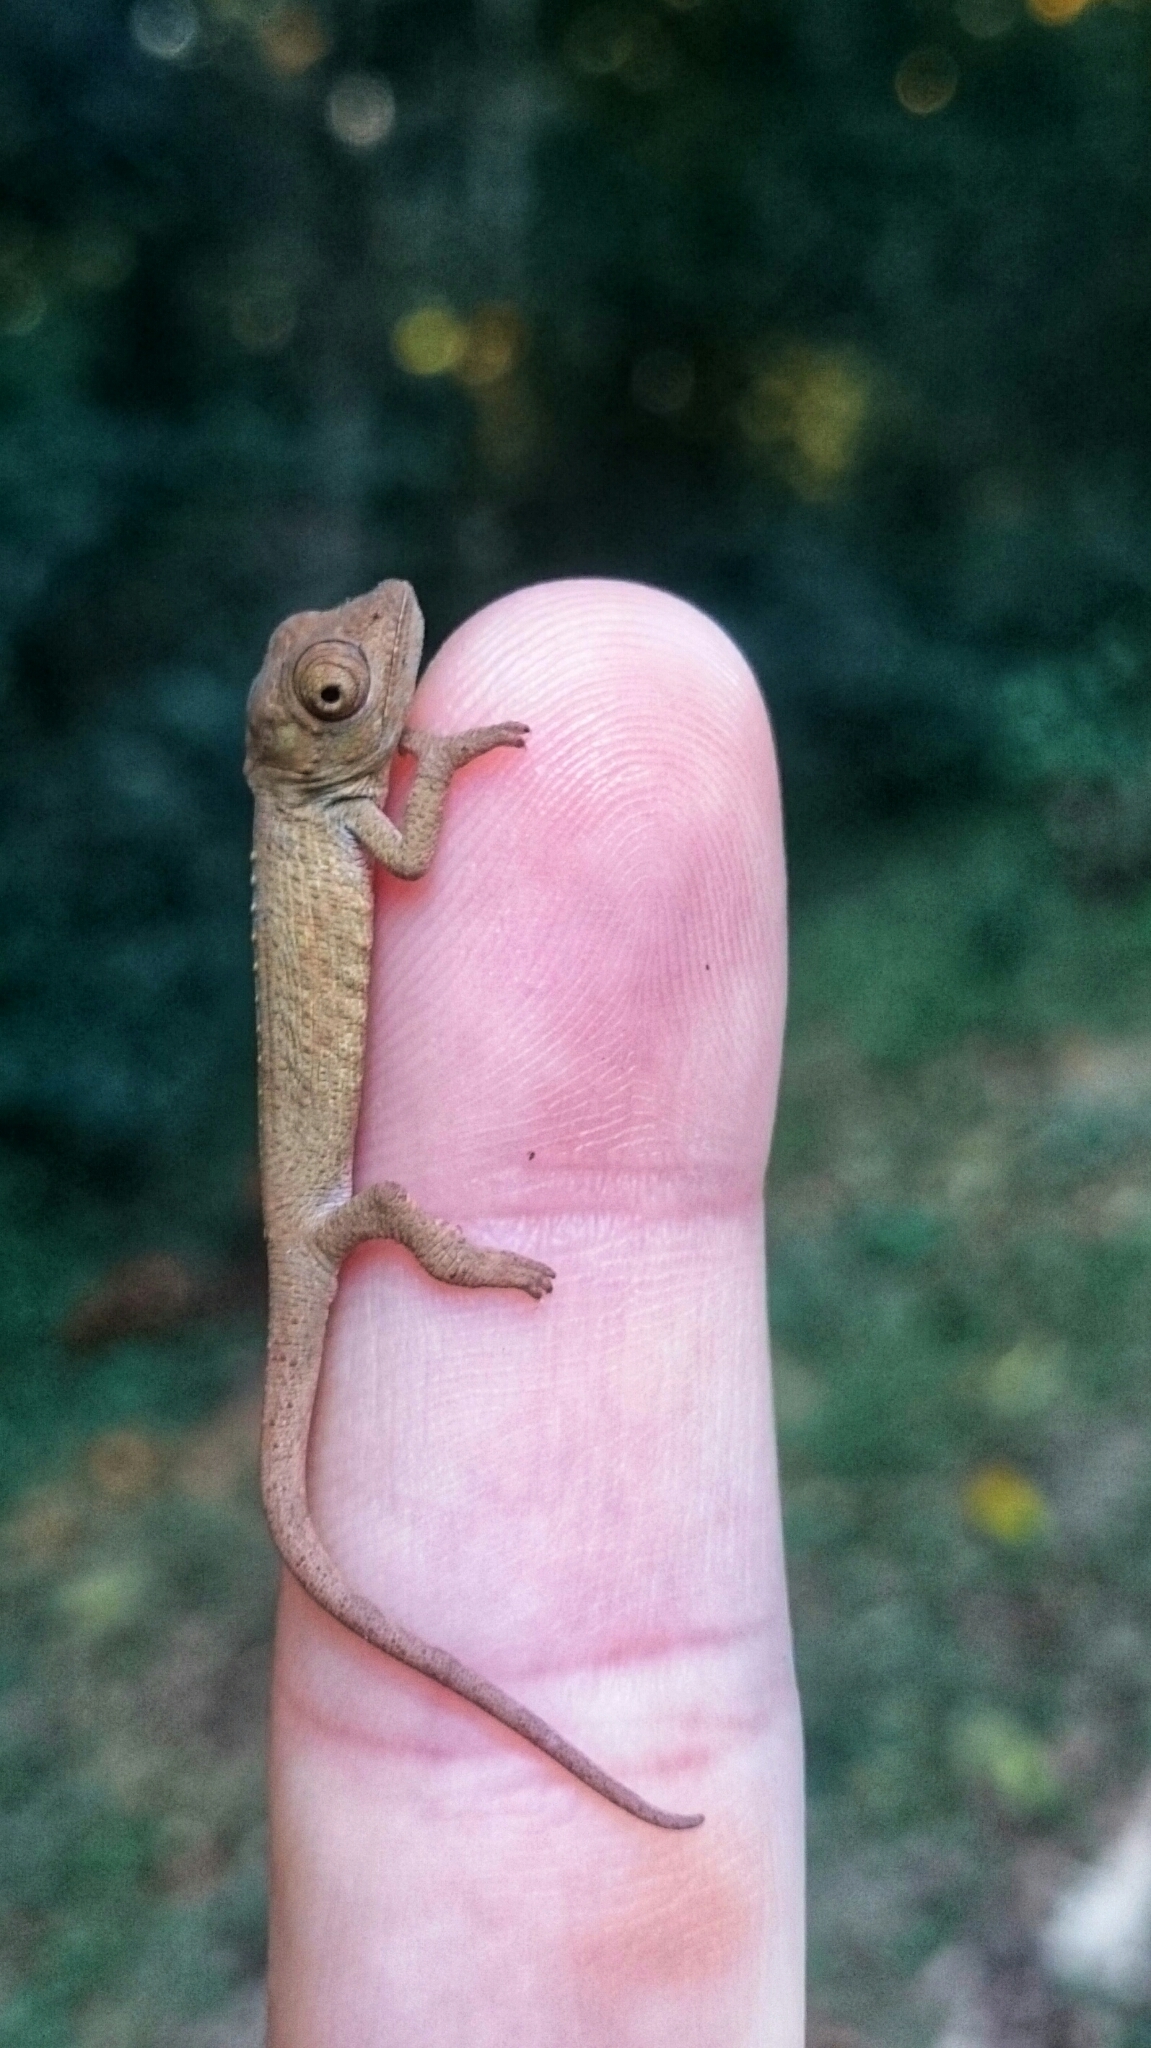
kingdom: Animalia
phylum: Chordata
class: Squamata
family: Chamaeleonidae
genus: Bradypodion
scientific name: Bradypodion caeruleogula
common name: Dhlinza dwarf chameleon
